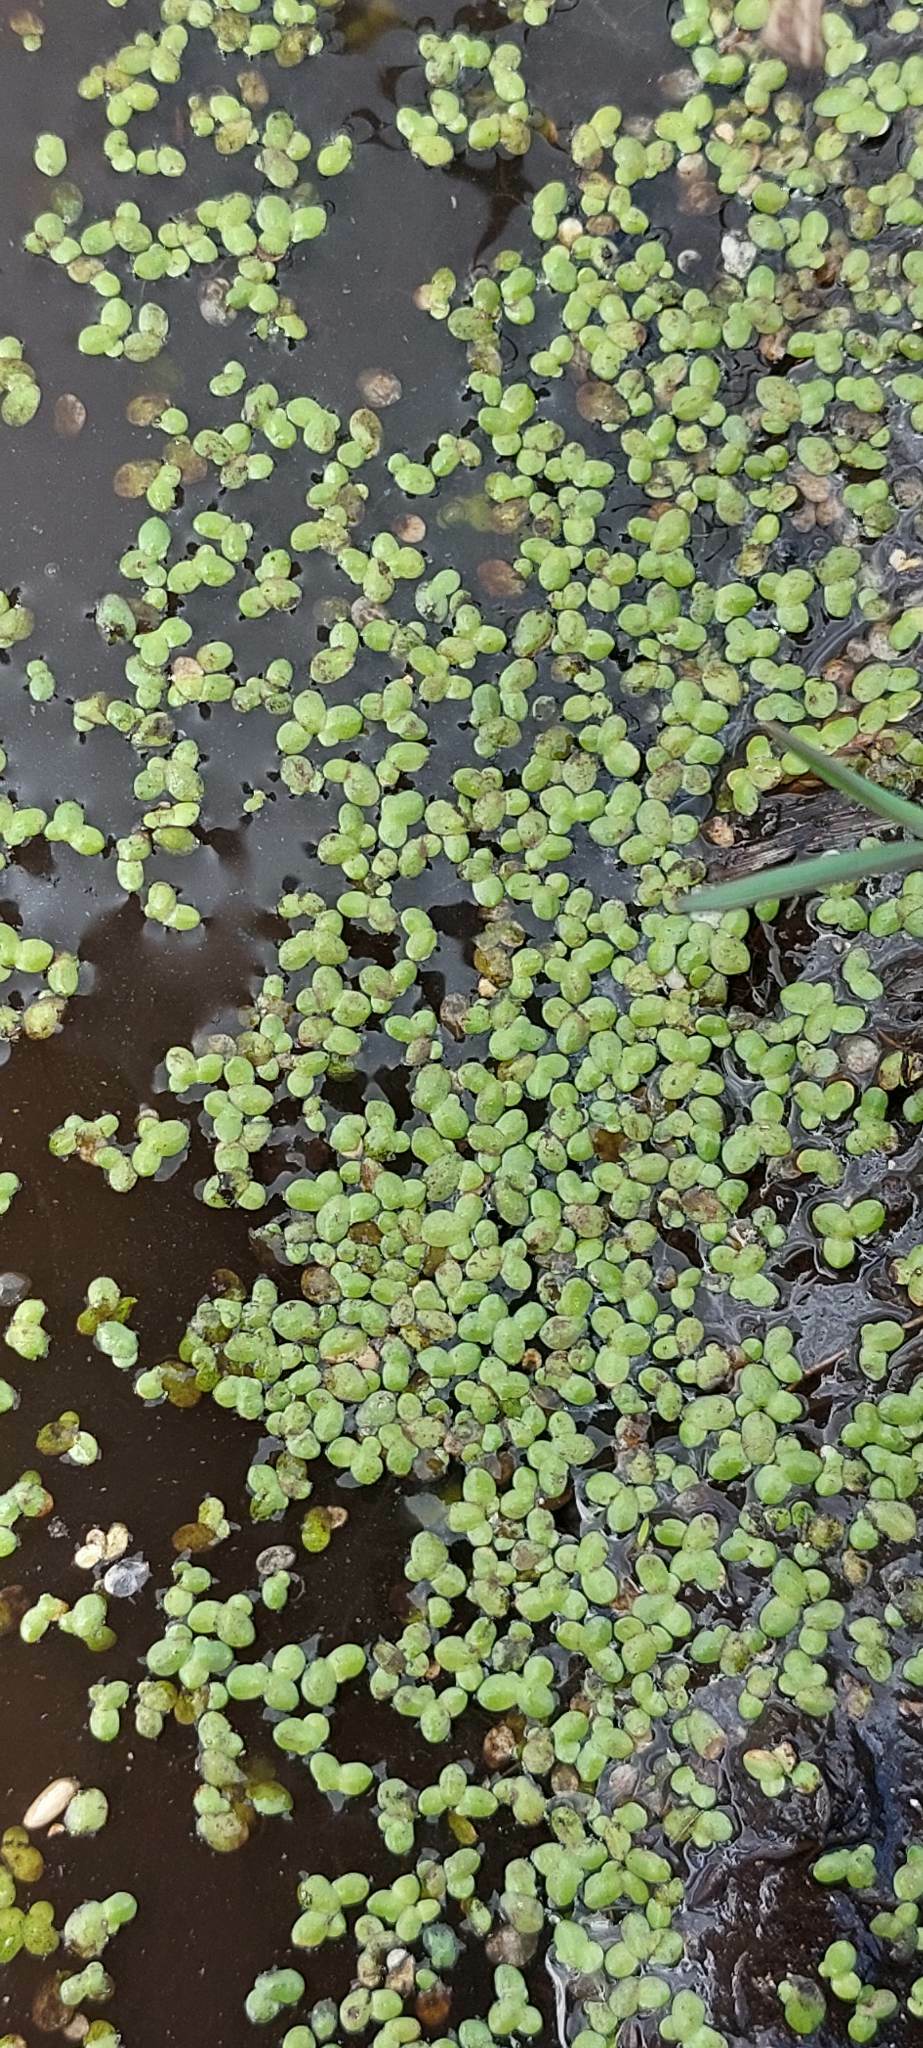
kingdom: Plantae
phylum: Tracheophyta
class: Liliopsida
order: Alismatales
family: Araceae
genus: Lemna
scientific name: Lemna aequinoctialis
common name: Duckweed
